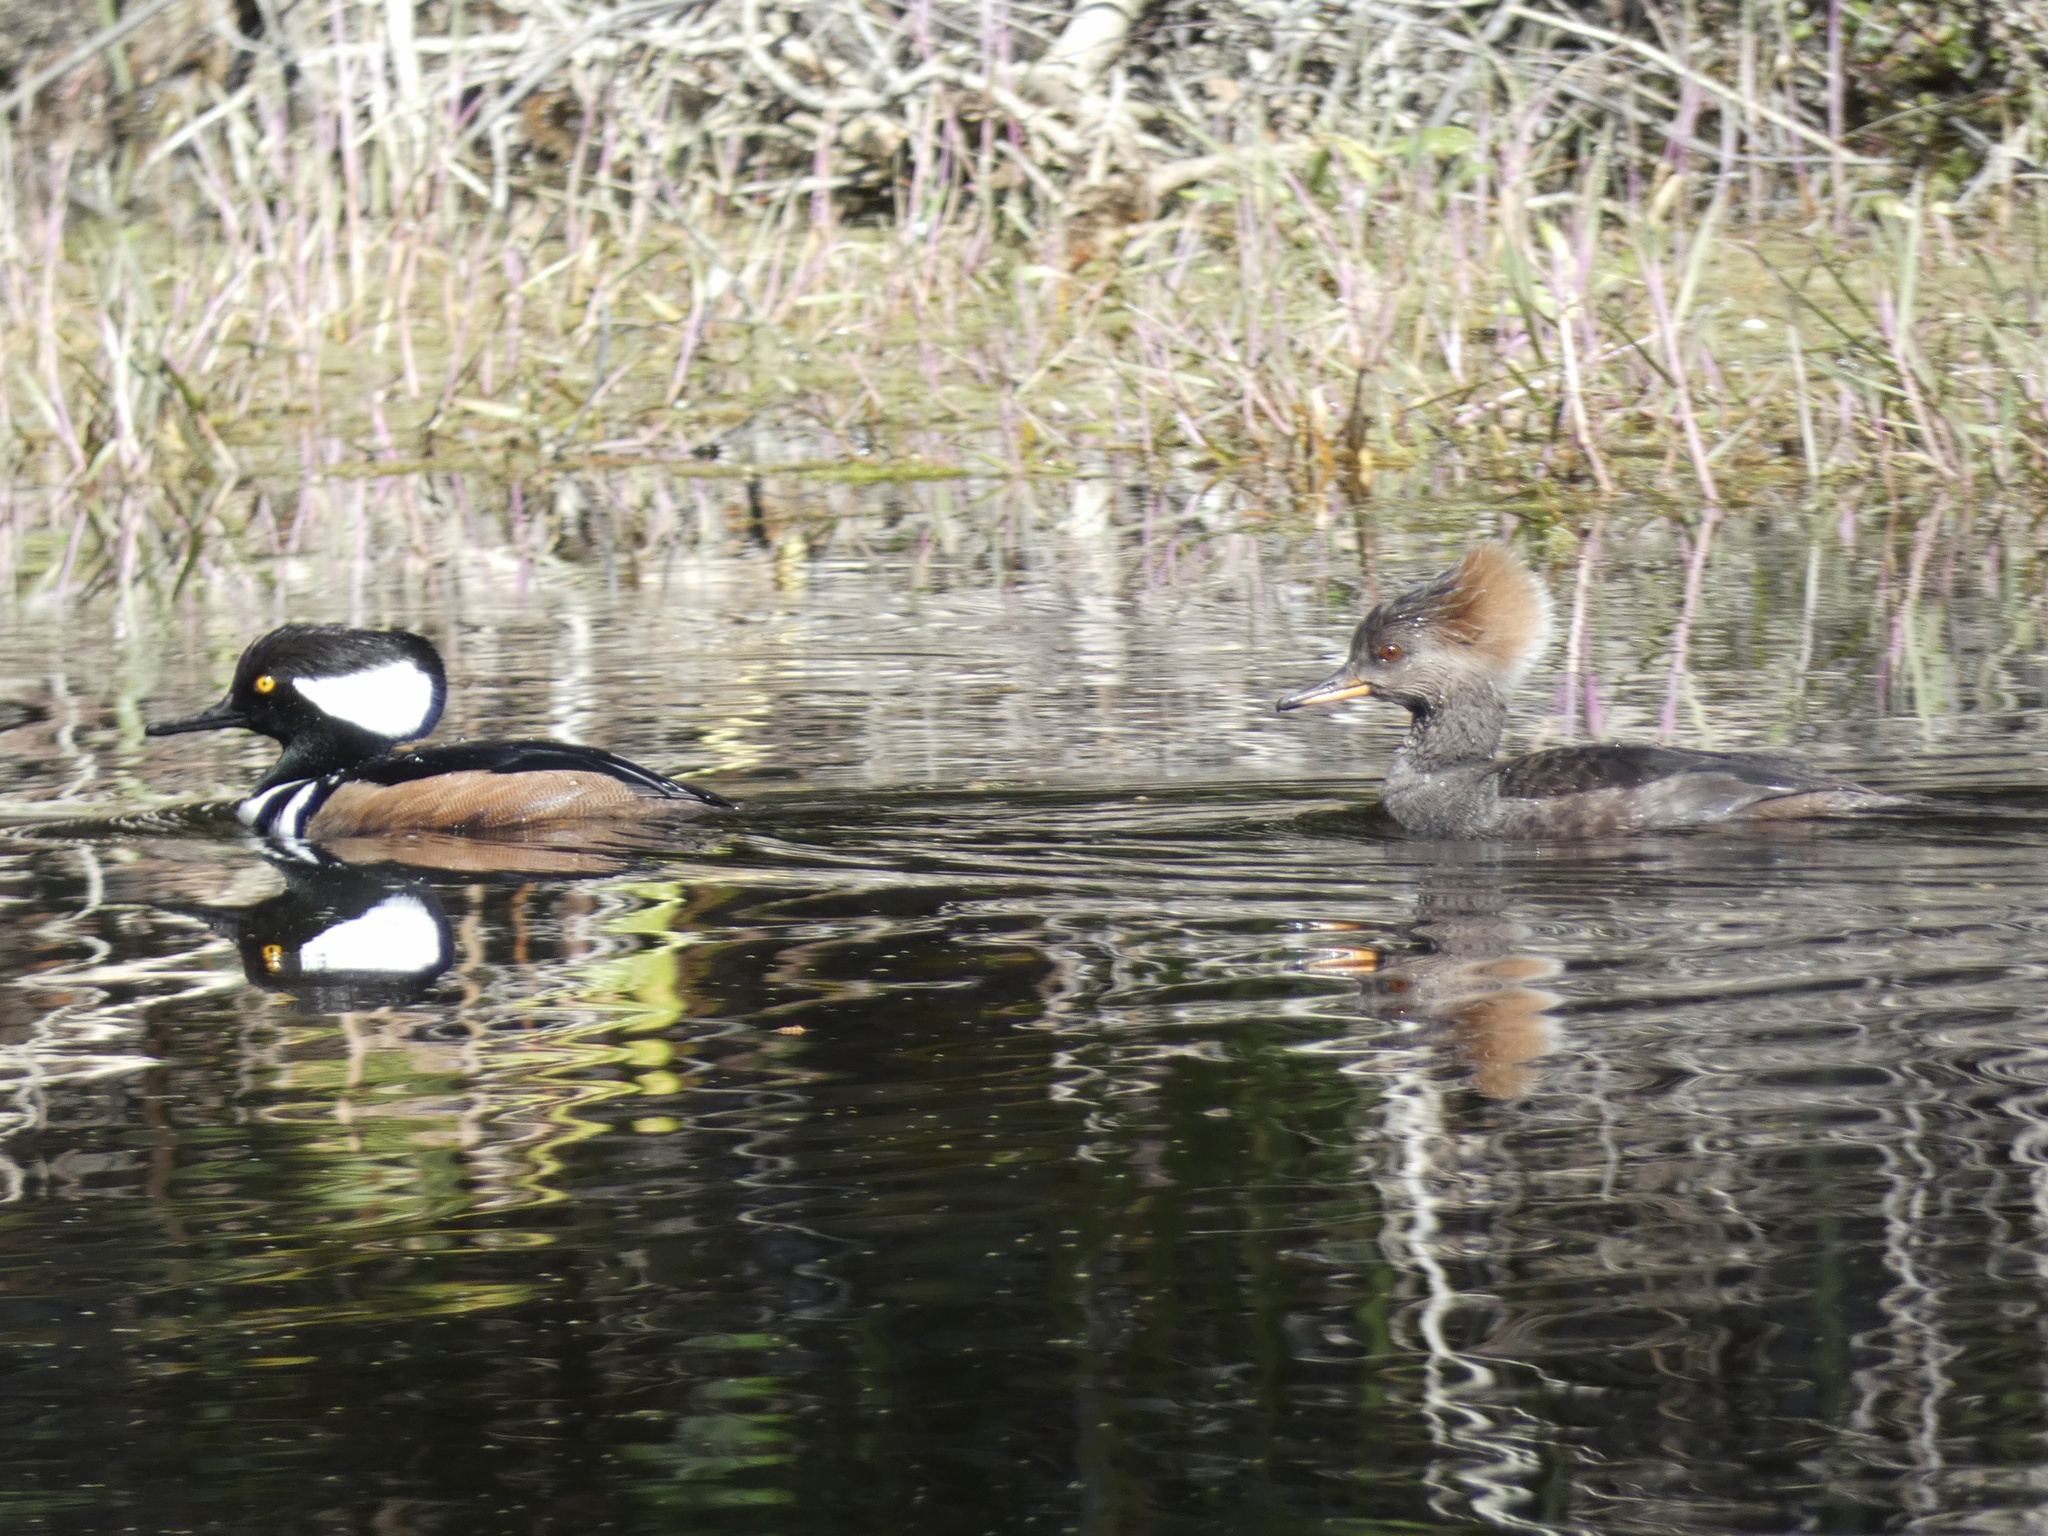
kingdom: Animalia
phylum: Chordata
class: Aves
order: Anseriformes
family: Anatidae
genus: Lophodytes
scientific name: Lophodytes cucullatus
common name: Hooded merganser
